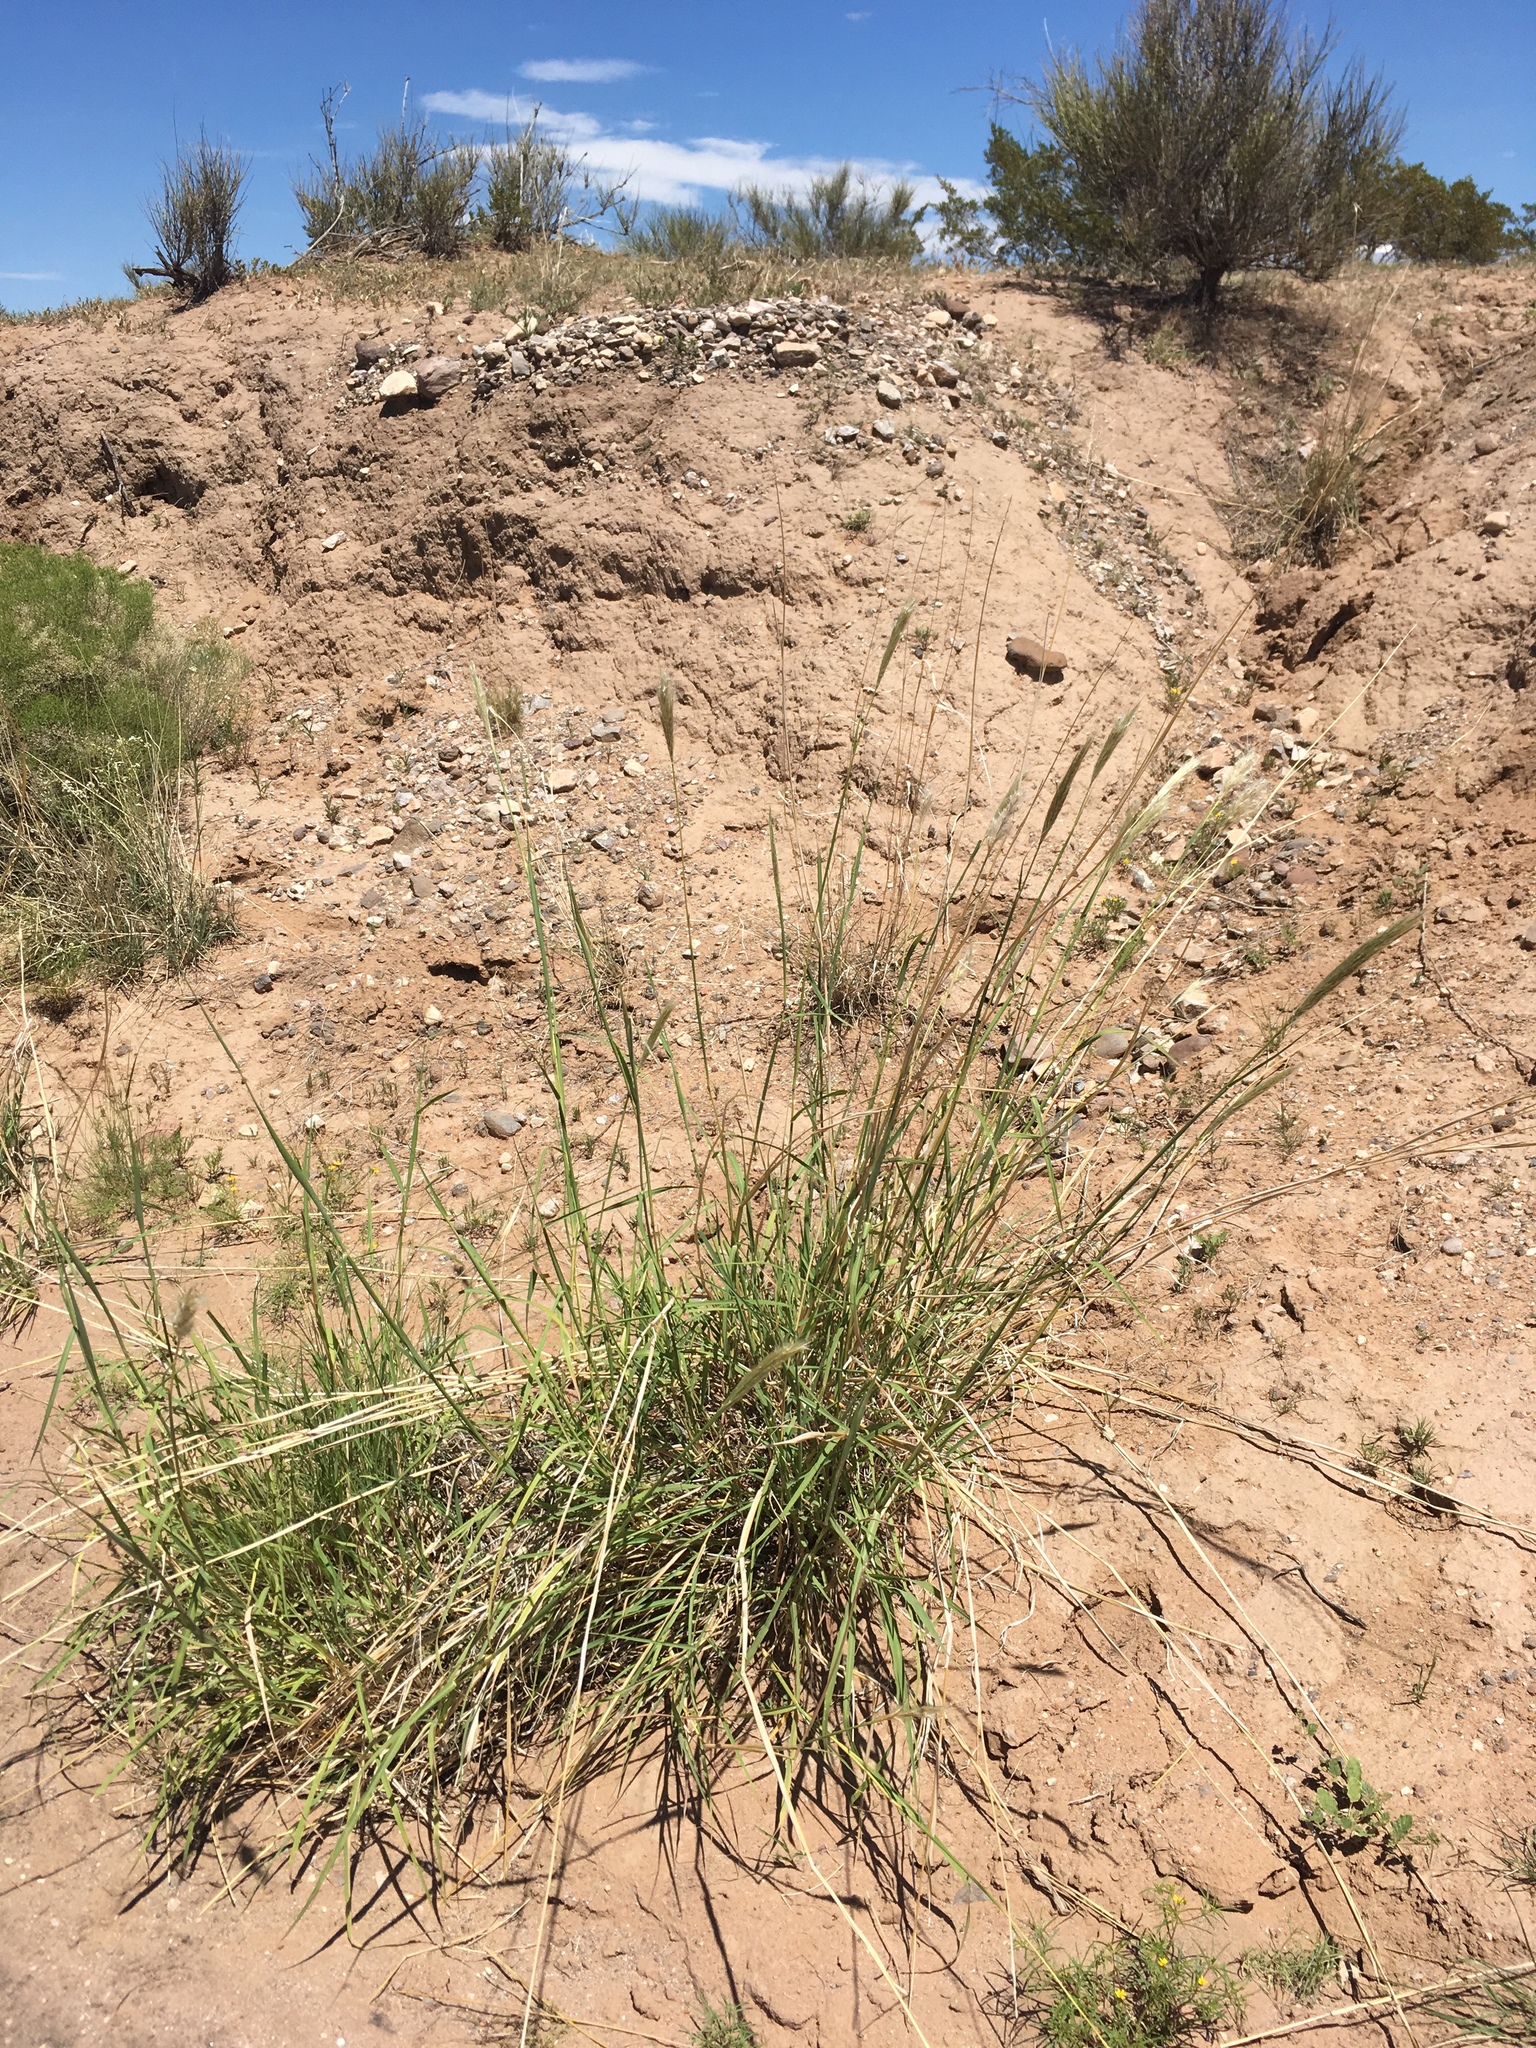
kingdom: Plantae
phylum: Tracheophyta
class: Liliopsida
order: Poales
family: Poaceae
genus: Bothriochloa
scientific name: Bothriochloa barbinodis
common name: Cane bluestem
